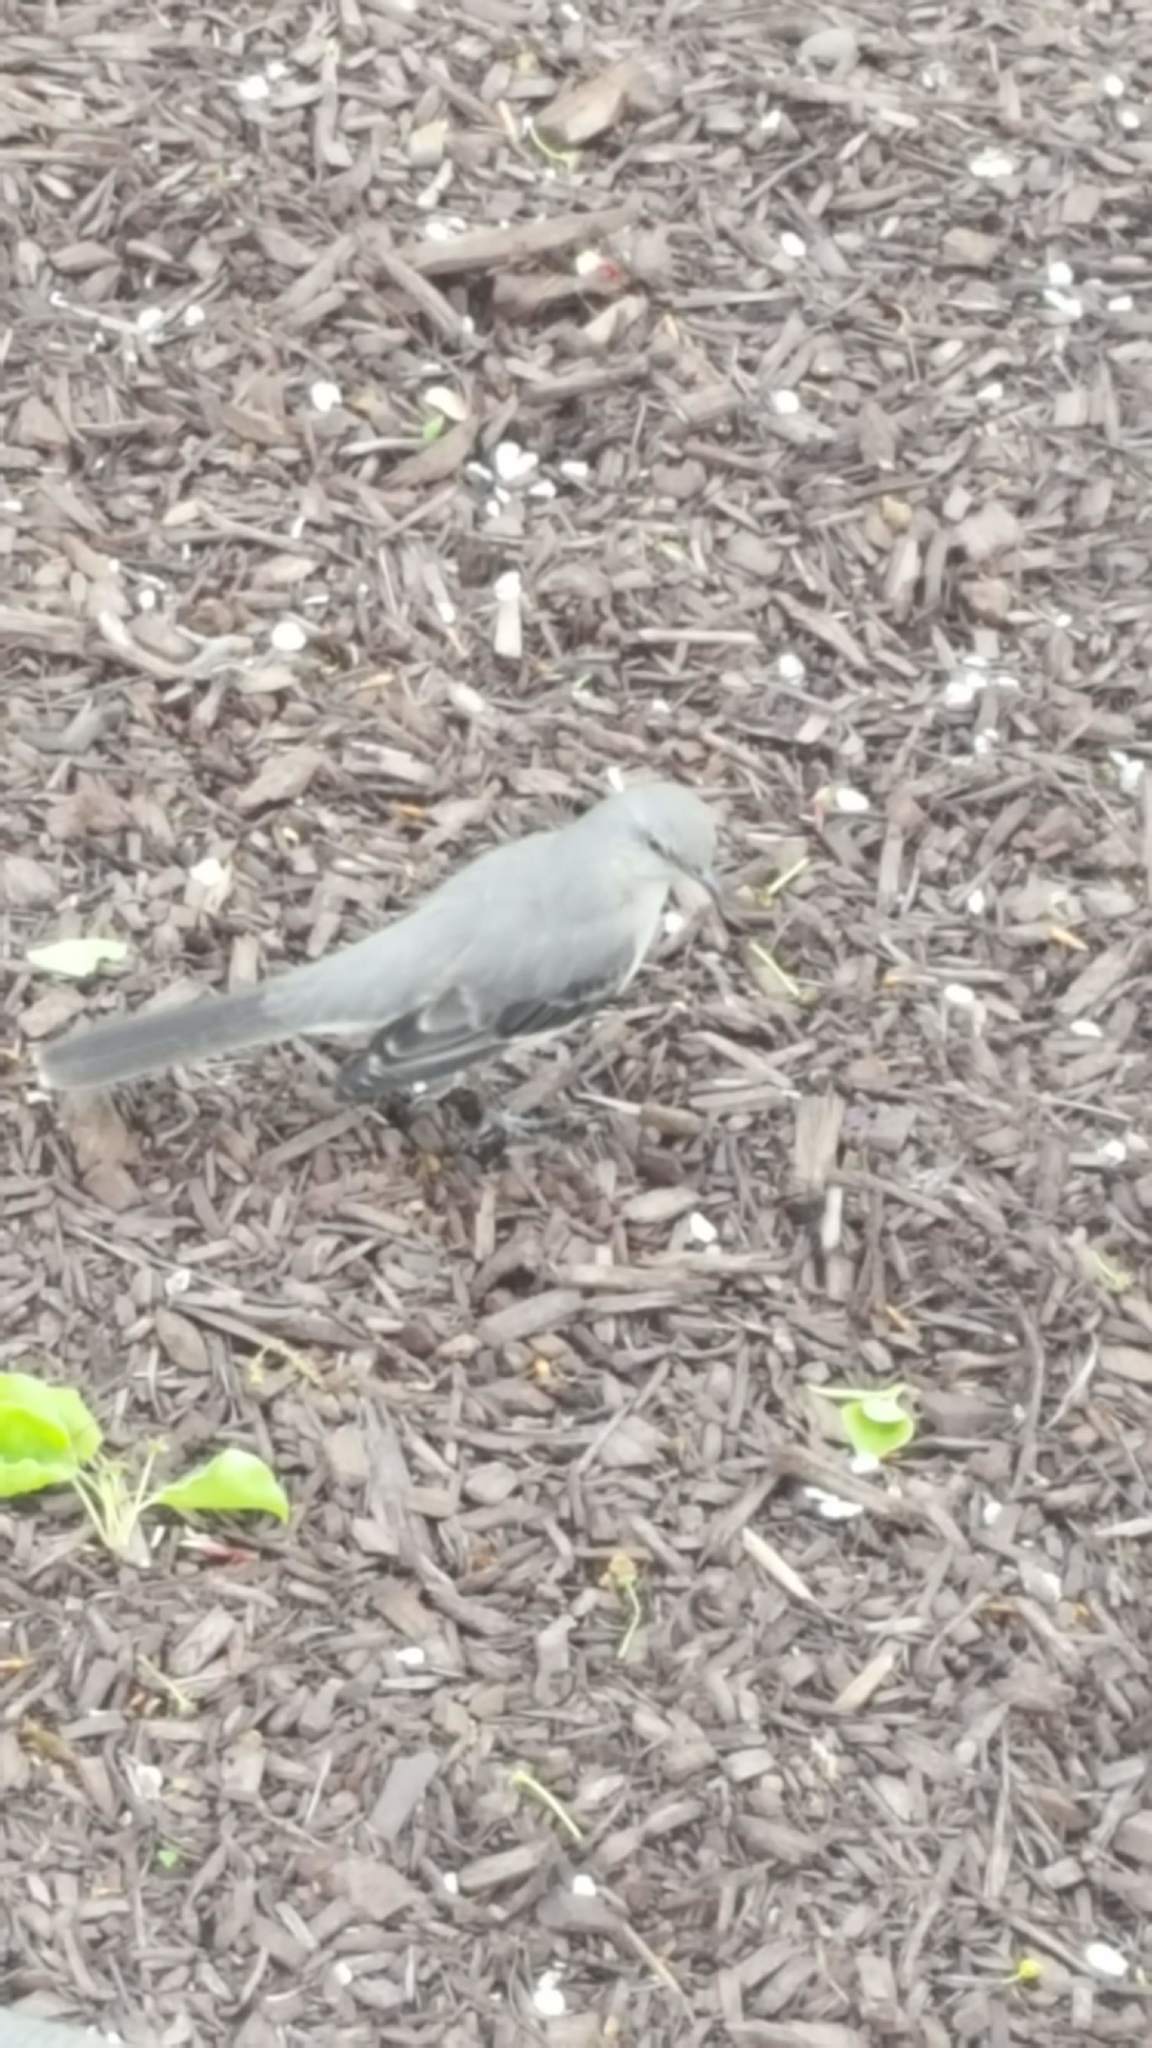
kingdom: Animalia
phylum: Chordata
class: Aves
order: Passeriformes
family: Mimidae
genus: Mimus
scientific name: Mimus polyglottos
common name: Northern mockingbird
